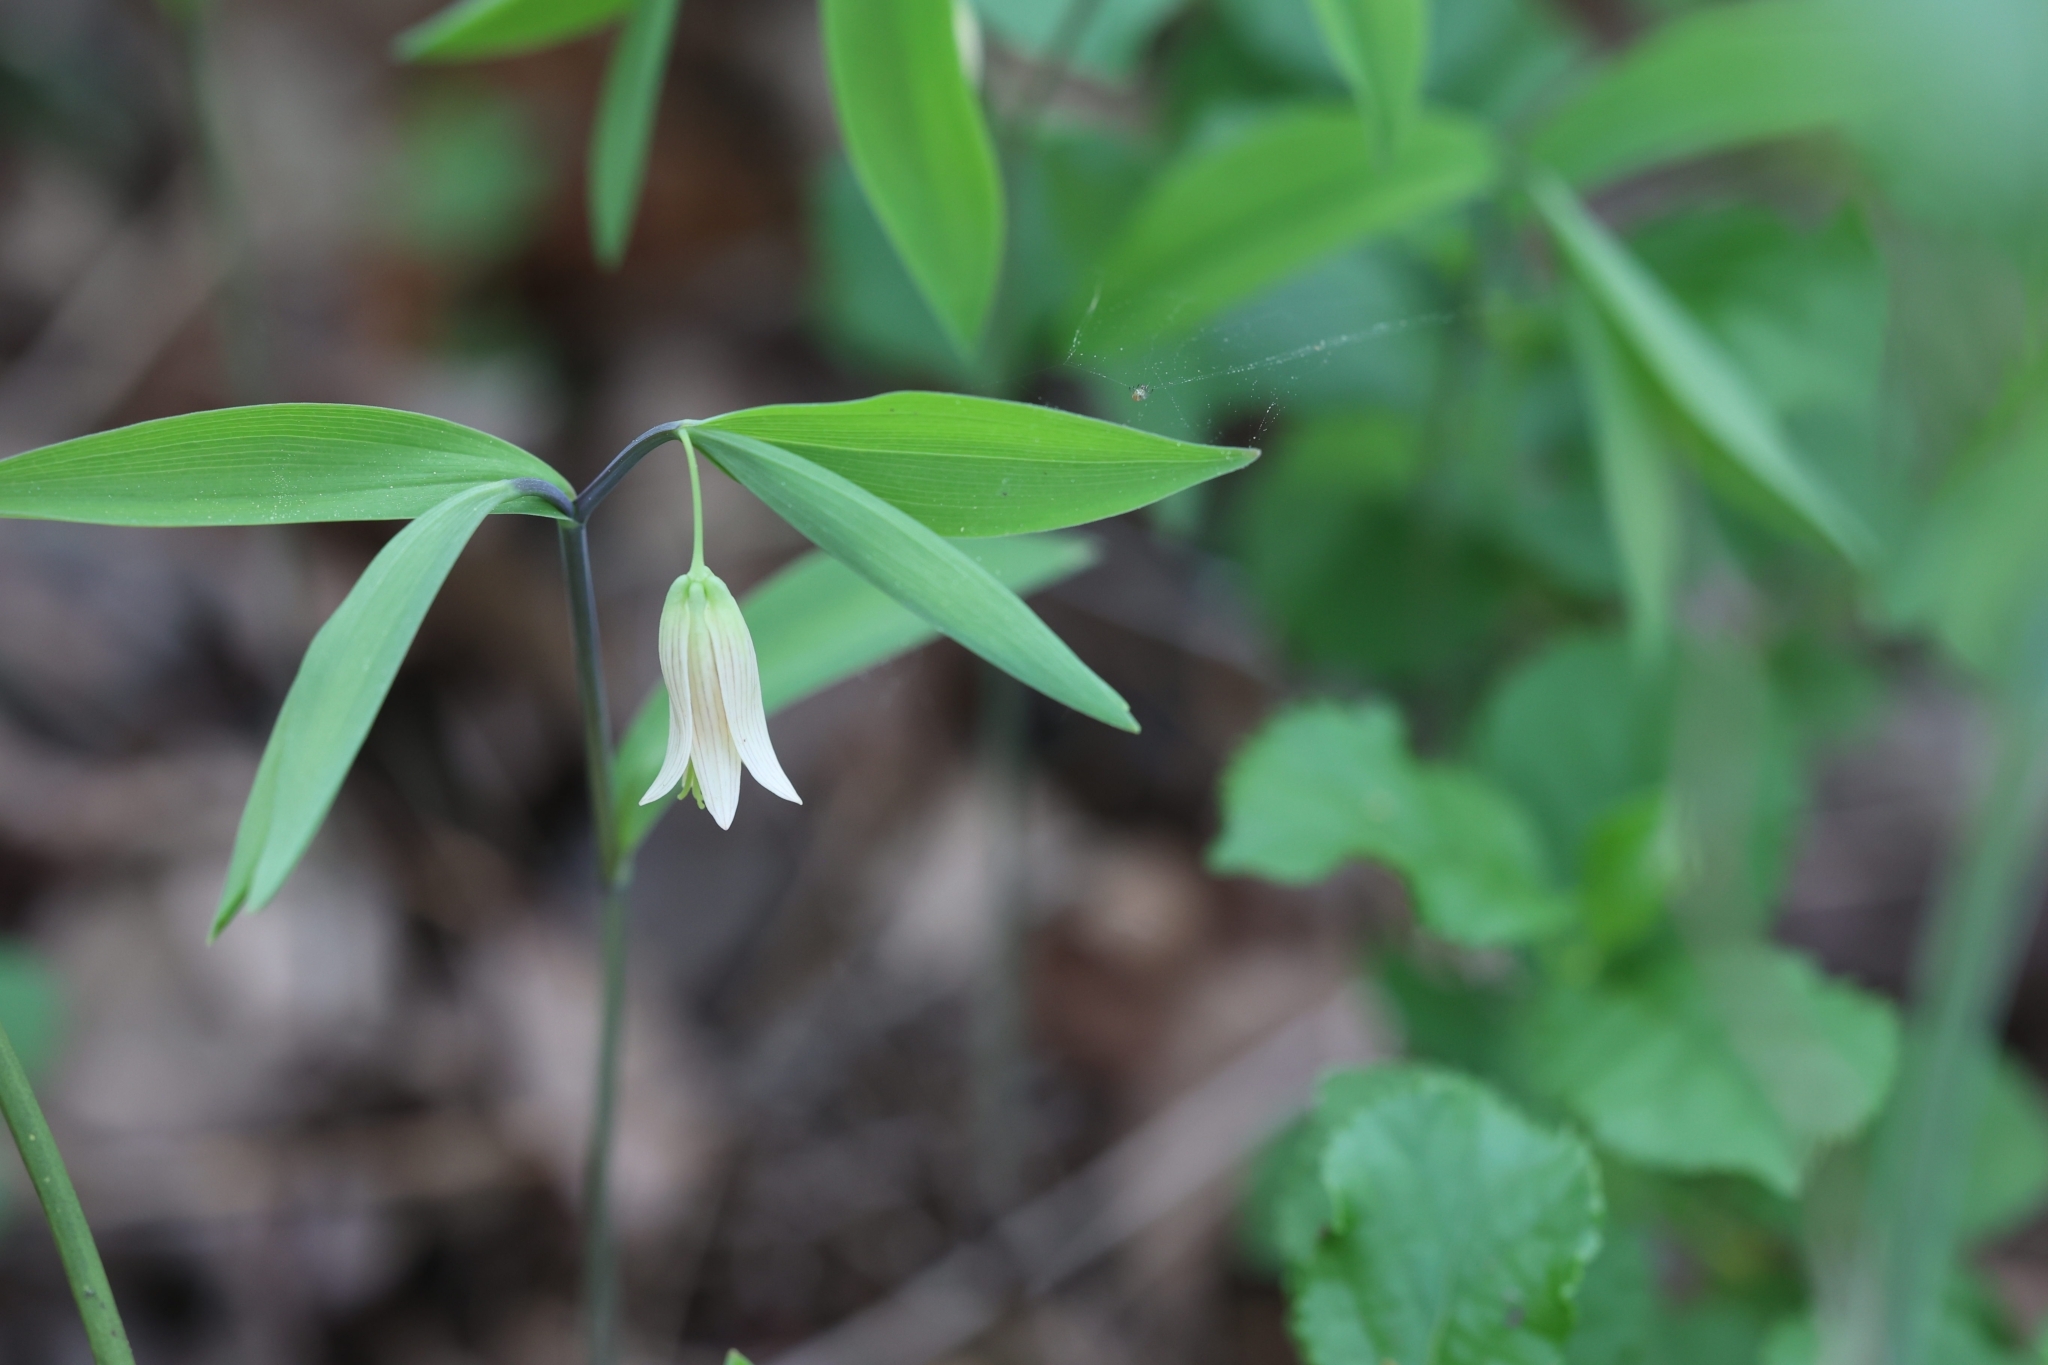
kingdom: Plantae
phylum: Tracheophyta
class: Liliopsida
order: Liliales
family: Colchicaceae
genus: Uvularia
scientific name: Uvularia sessilifolia
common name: Straw-lily
